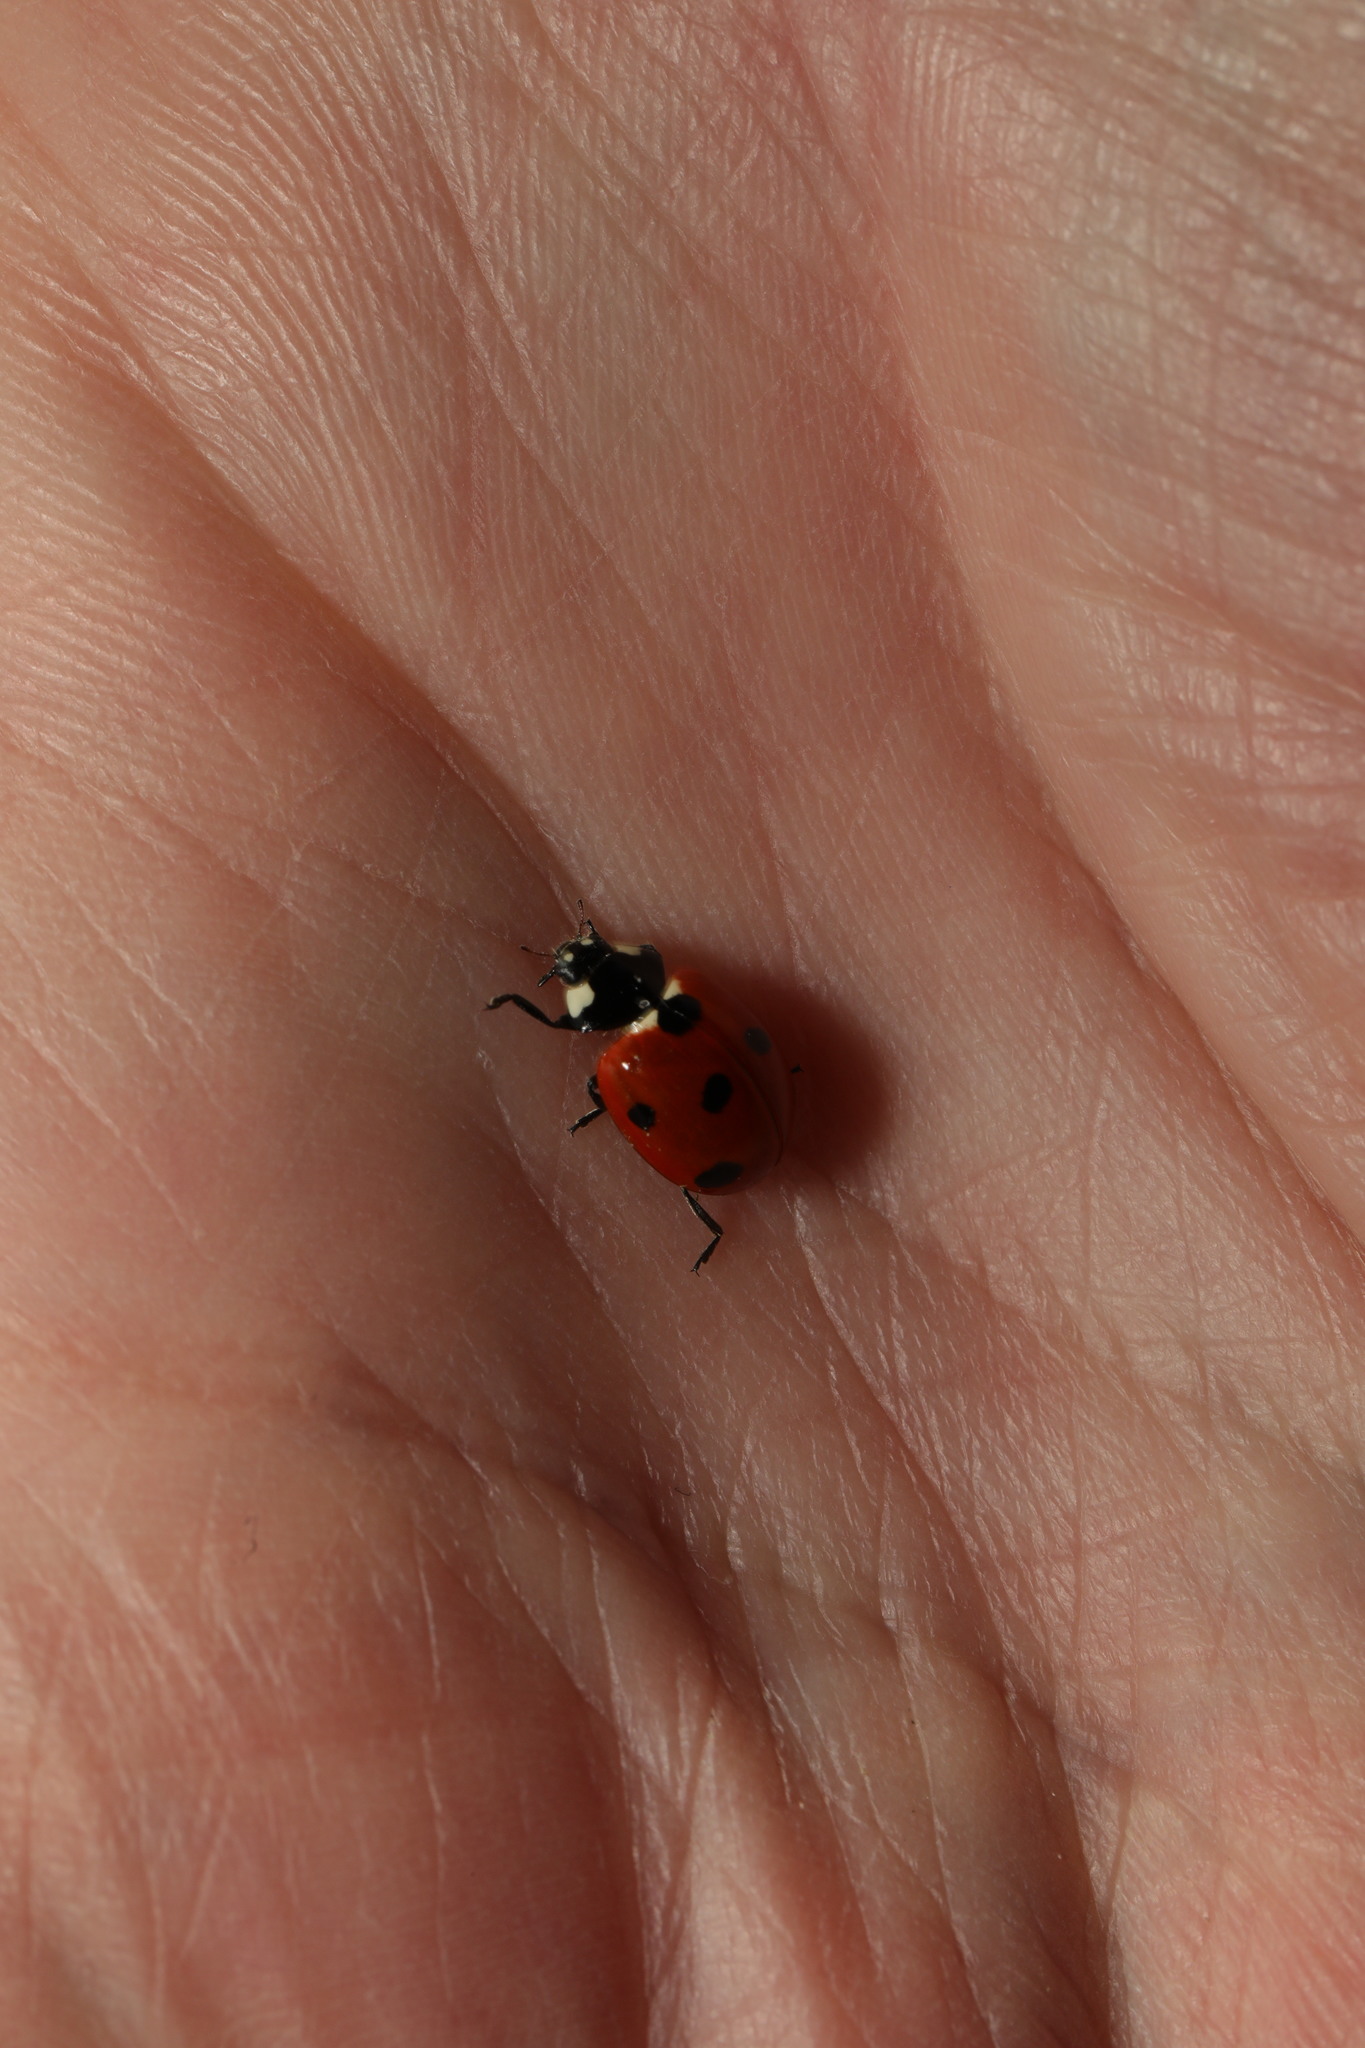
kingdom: Animalia
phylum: Arthropoda
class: Insecta
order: Coleoptera
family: Coccinellidae
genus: Coccinella
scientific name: Coccinella septempunctata
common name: Sevenspotted lady beetle
